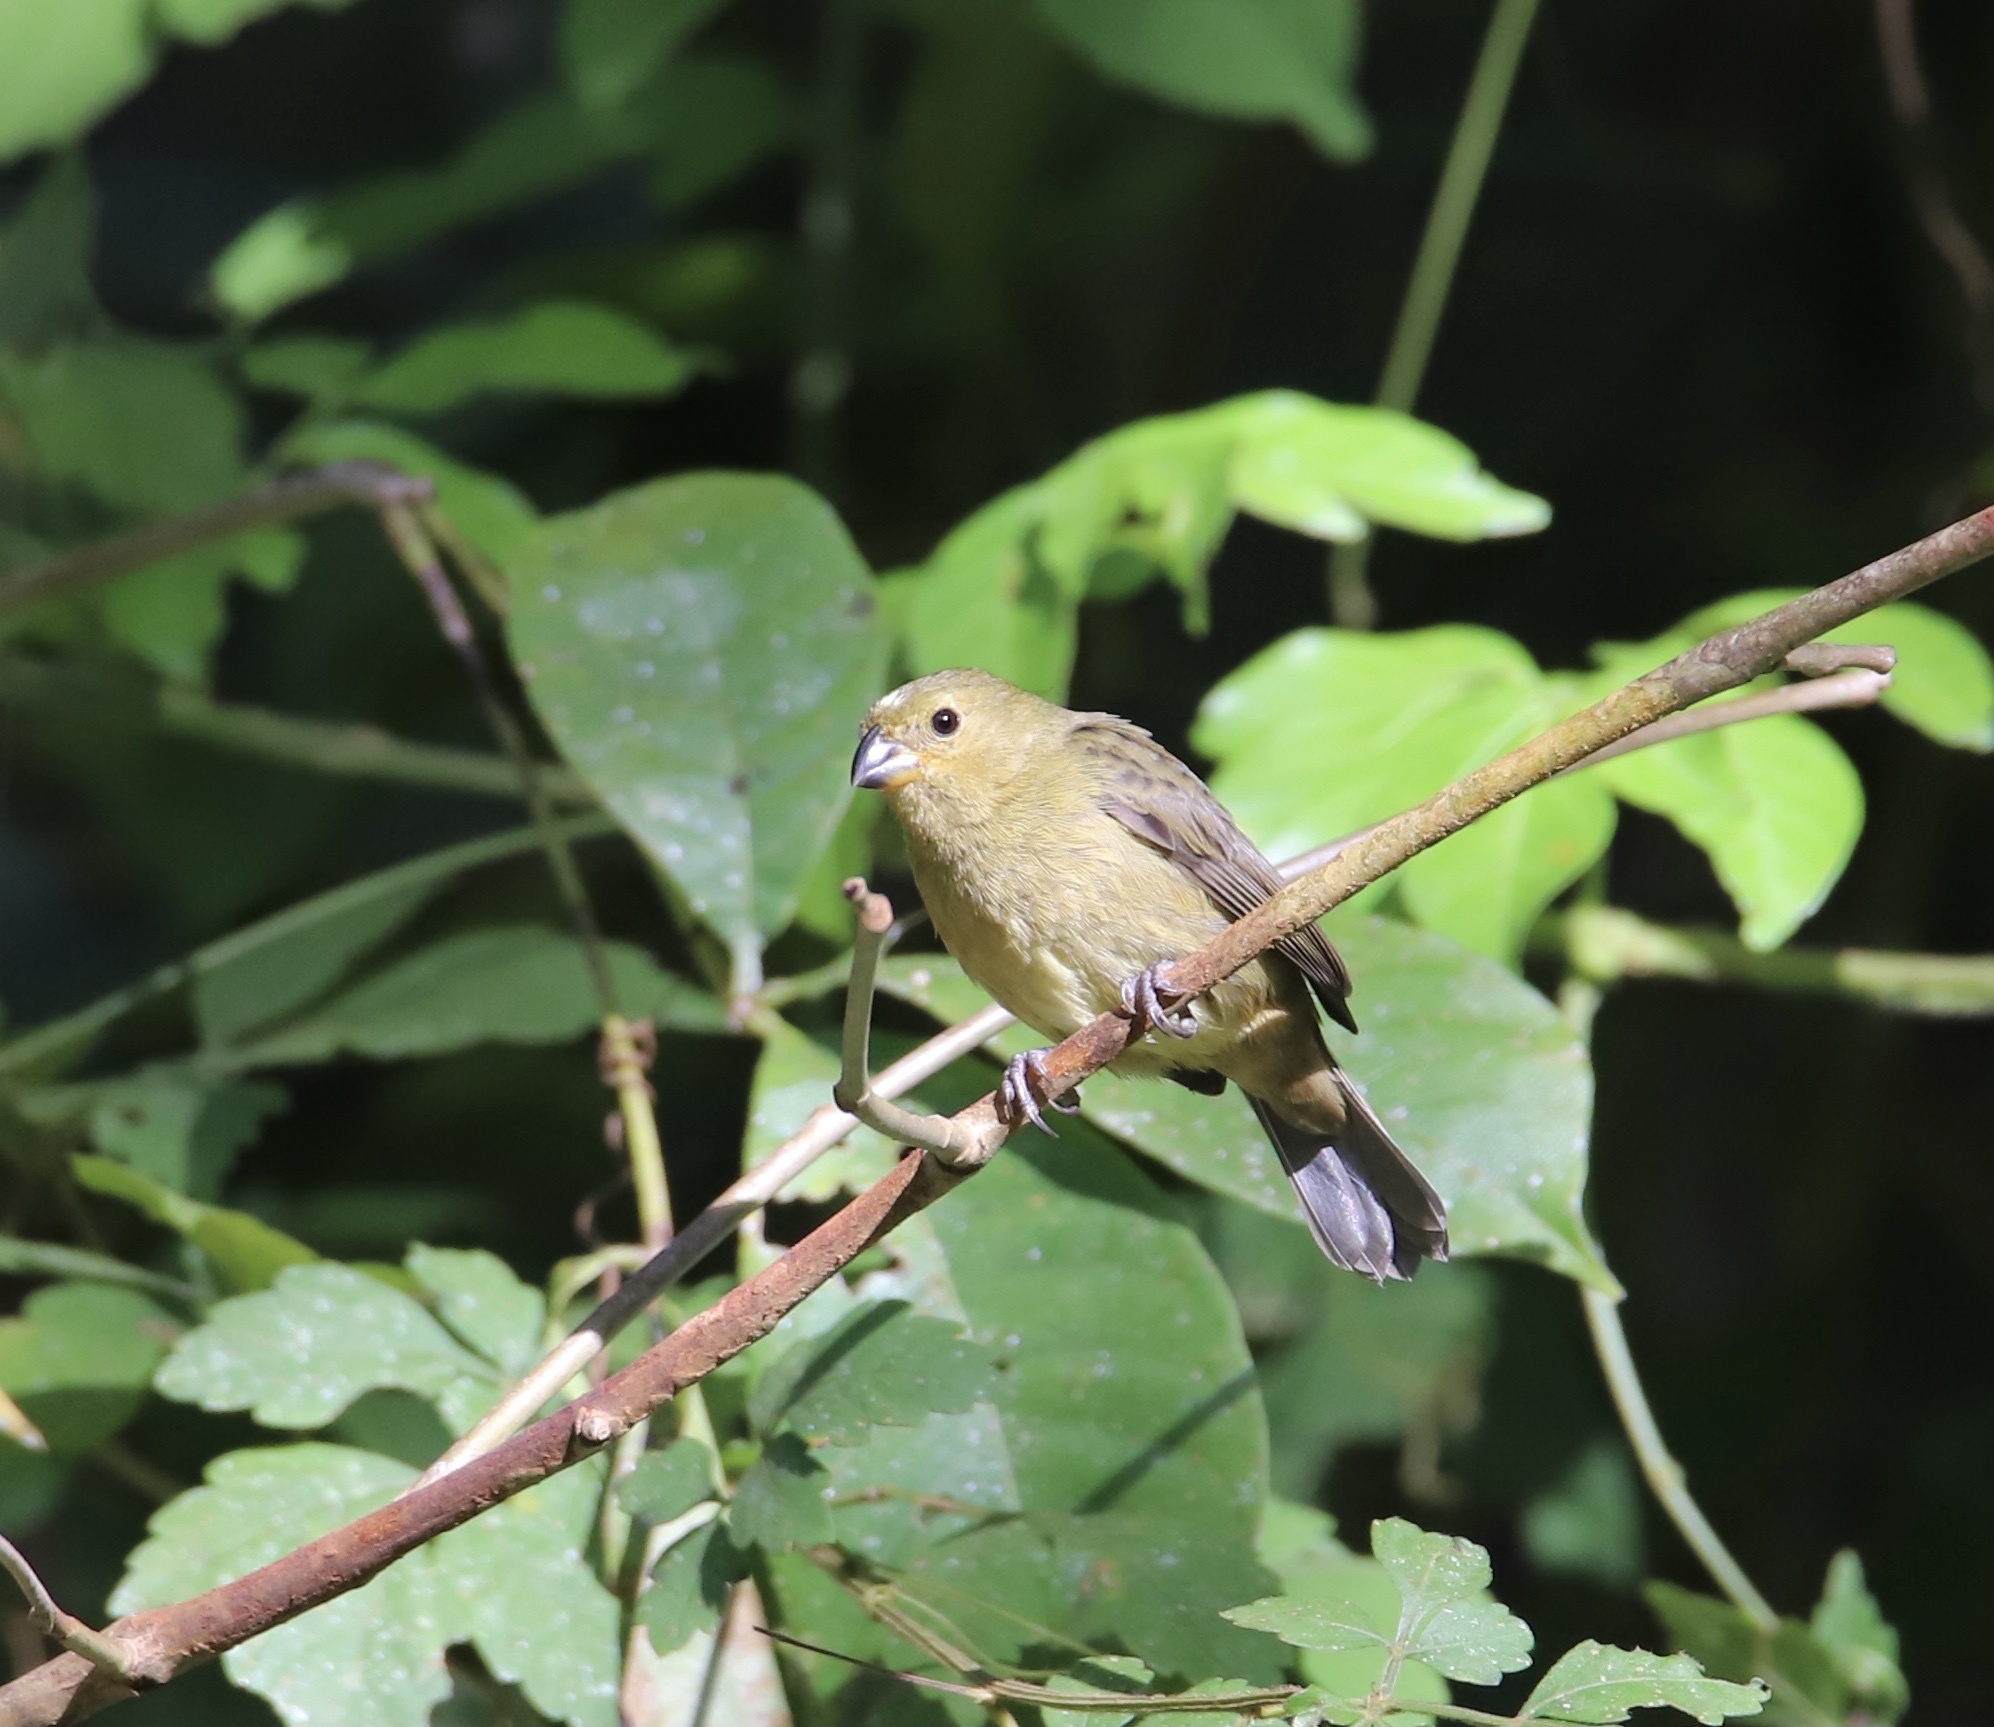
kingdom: Animalia
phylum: Chordata
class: Aves
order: Passeriformes
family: Thraupidae
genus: Sporophila
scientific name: Sporophila corvina
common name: Variable seedeater
